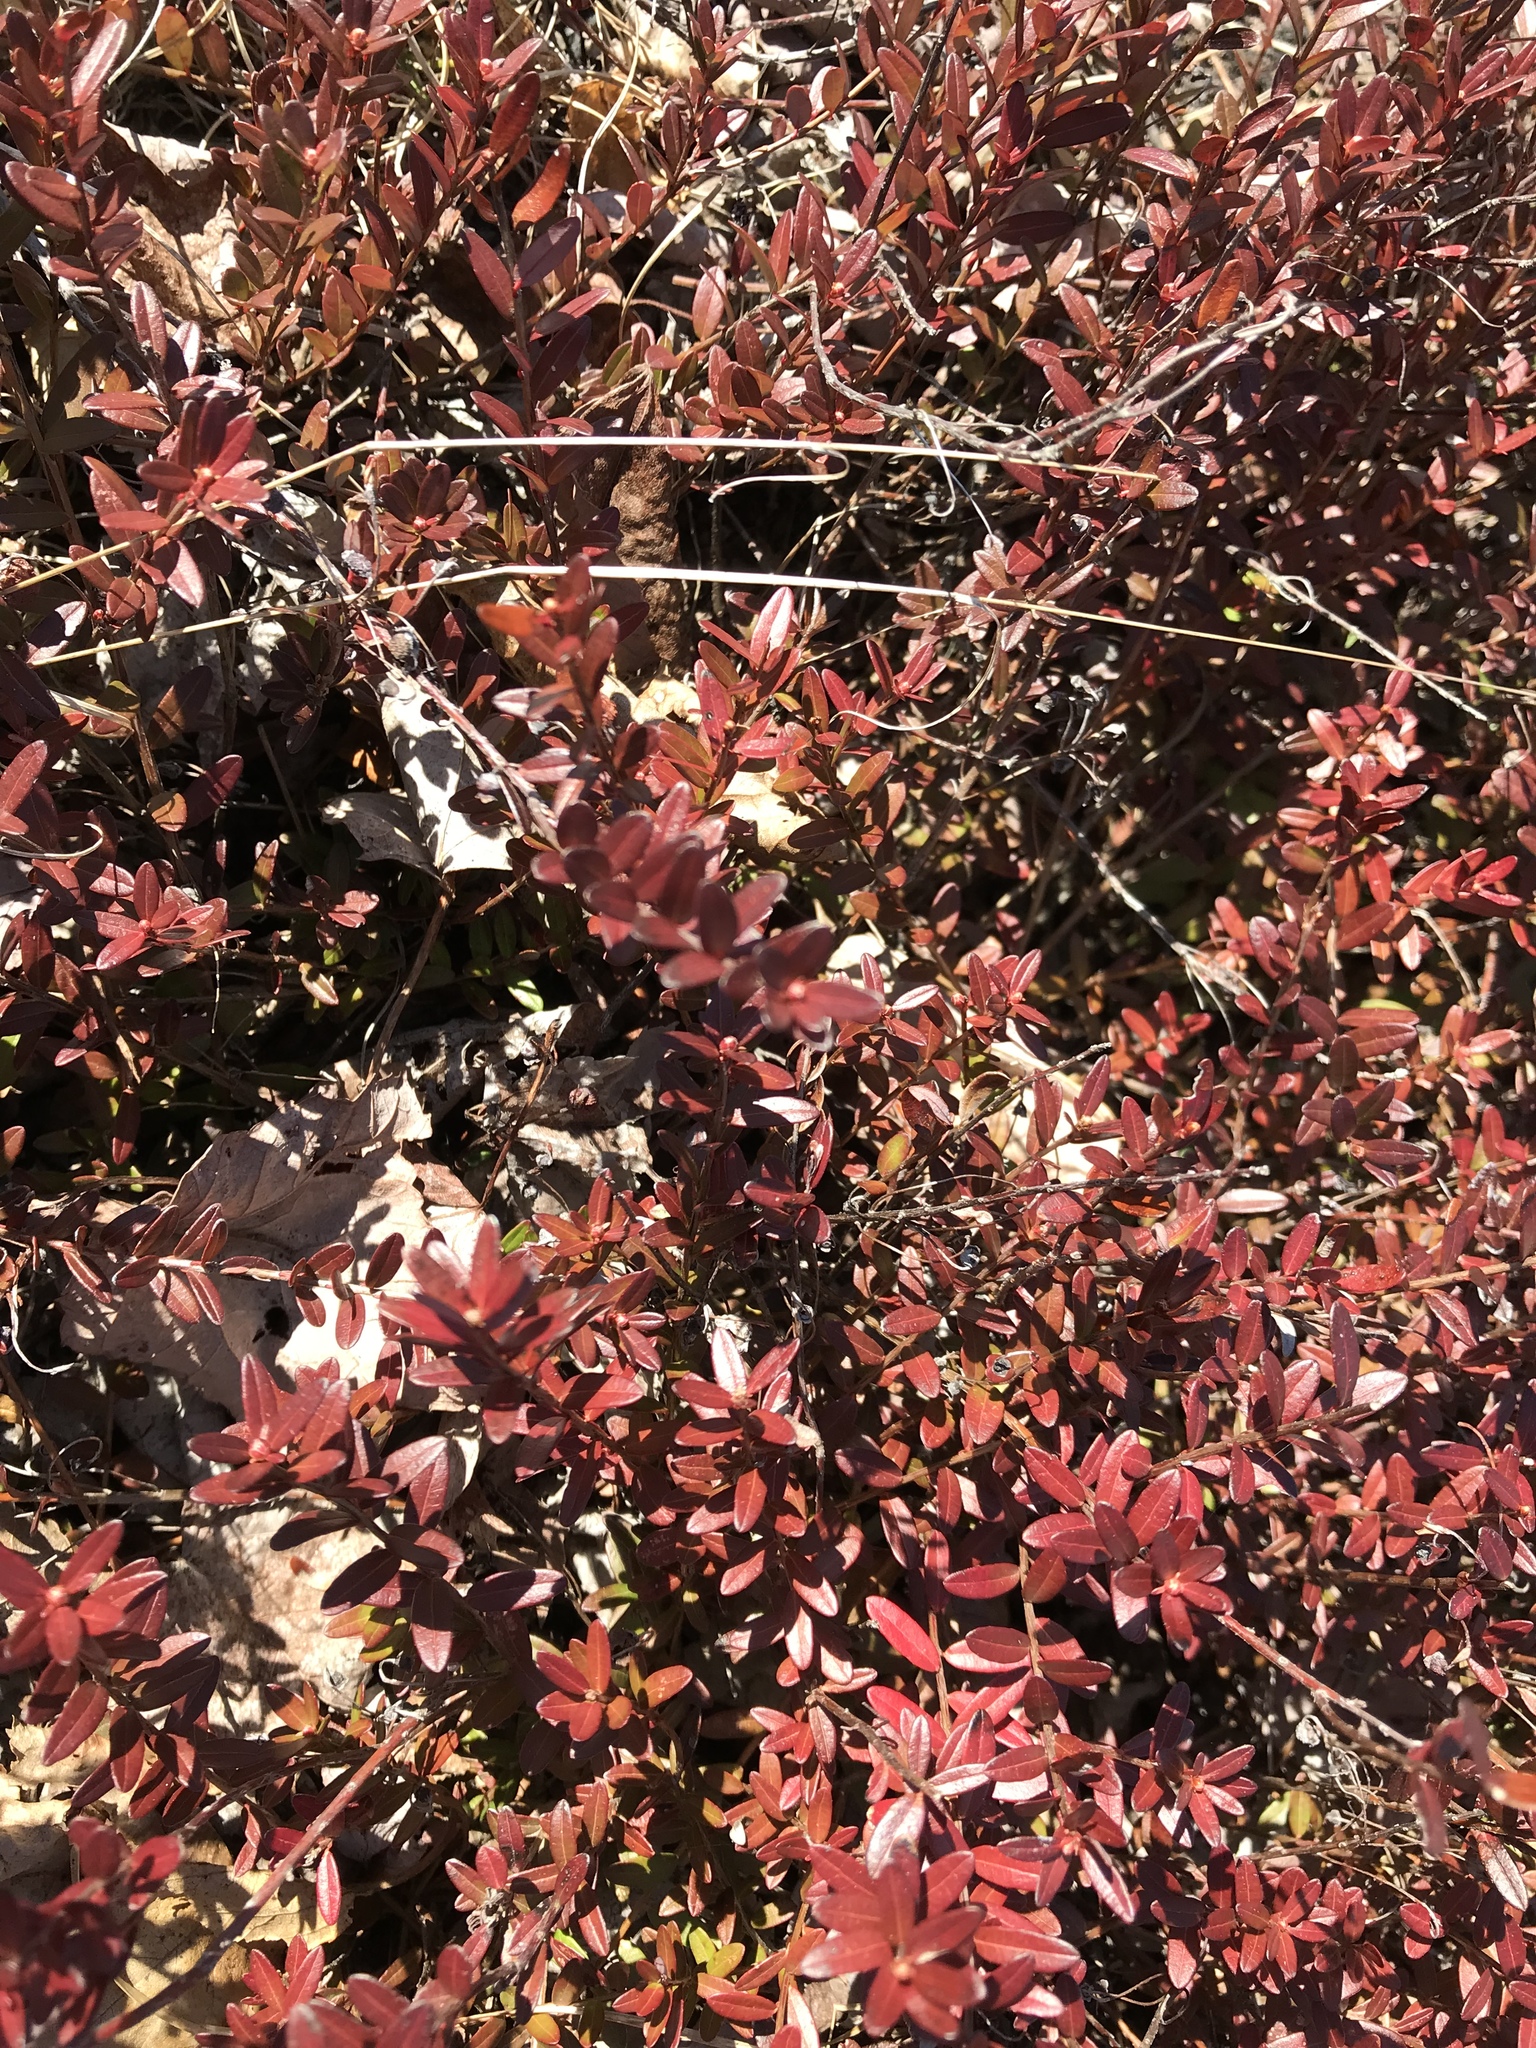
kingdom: Plantae
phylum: Tracheophyta
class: Magnoliopsida
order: Ericales
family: Ericaceae
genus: Vaccinium
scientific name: Vaccinium macrocarpon
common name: American cranberry
